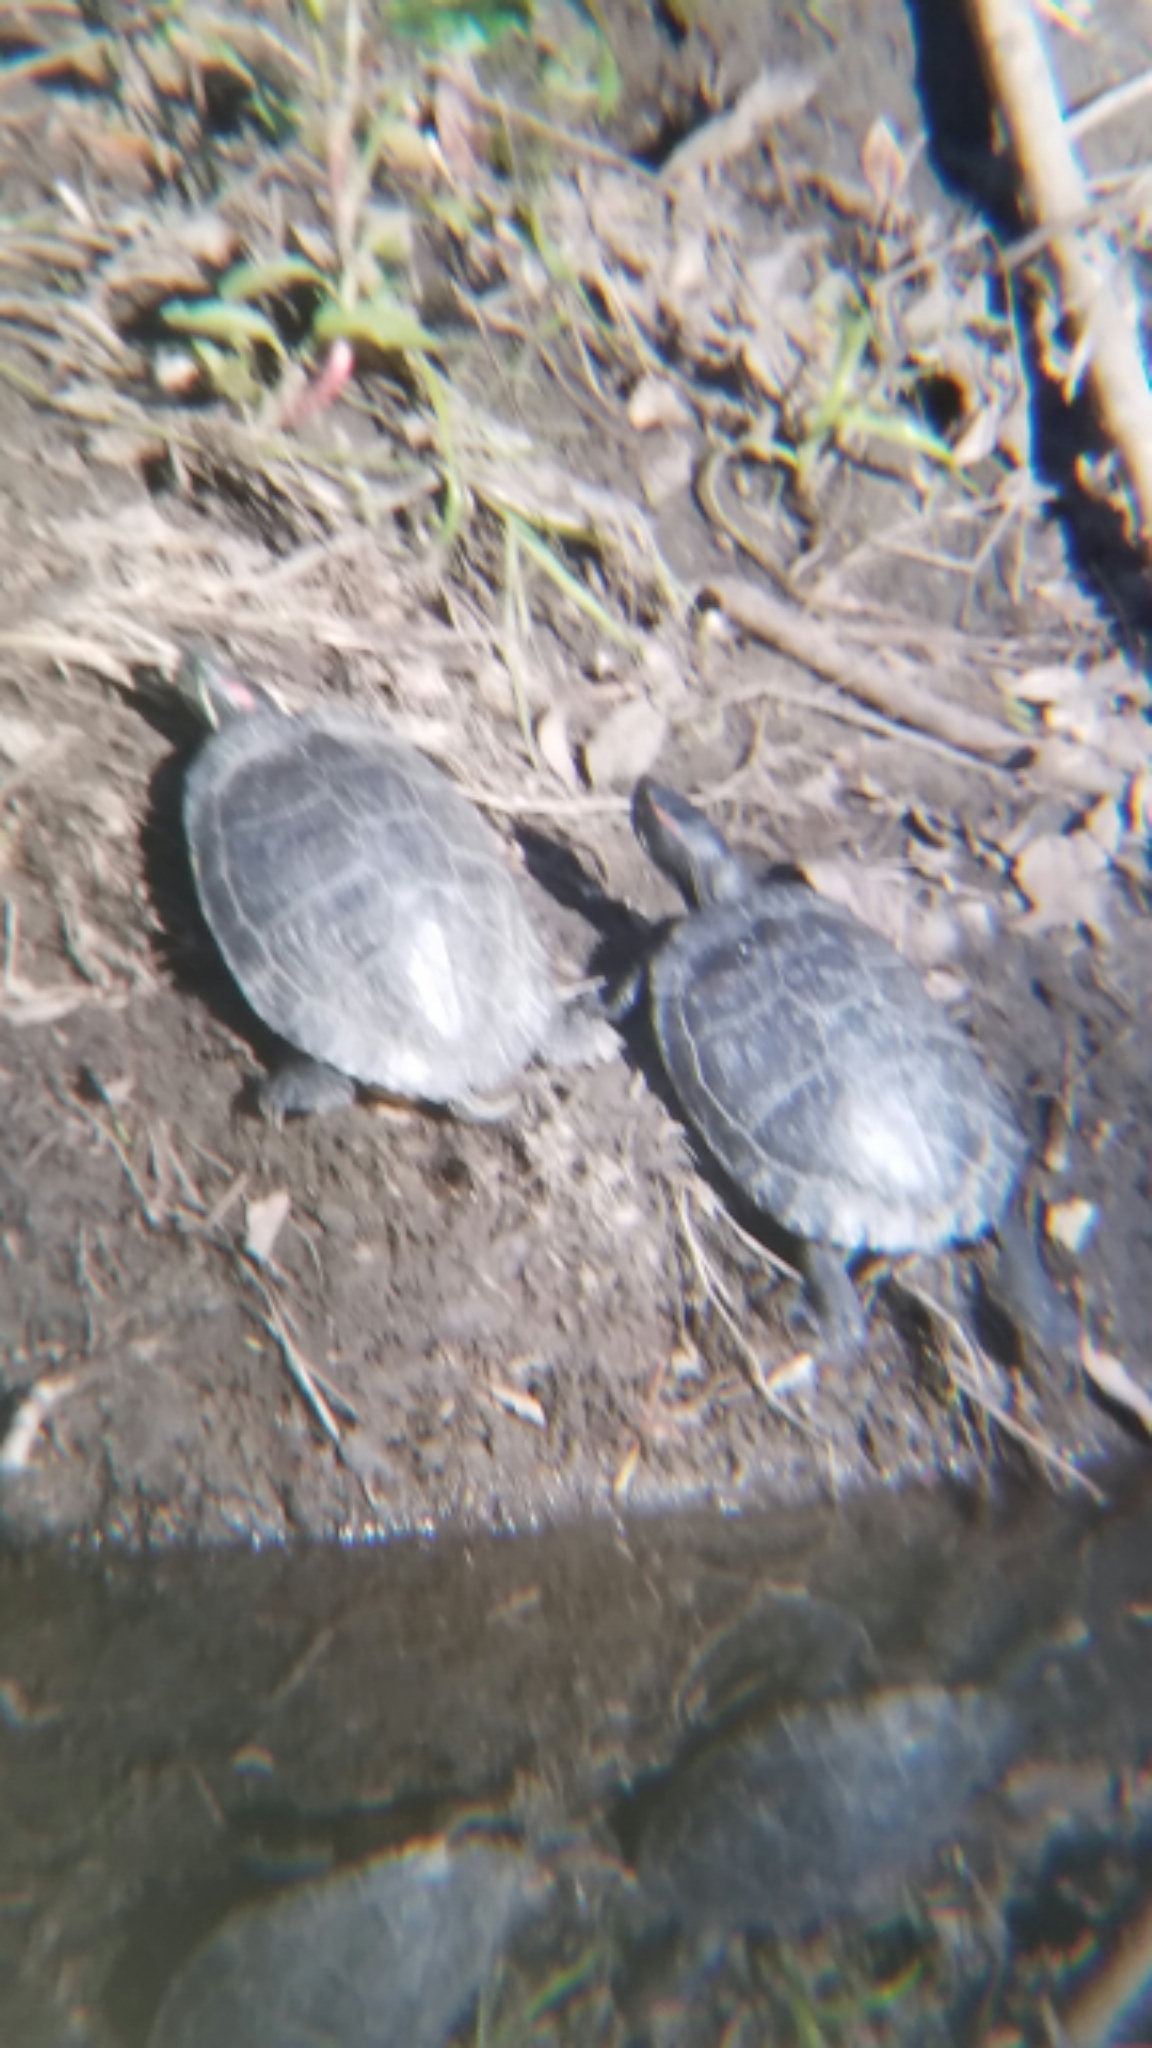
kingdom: Animalia
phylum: Chordata
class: Testudines
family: Emydidae
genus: Trachemys
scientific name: Trachemys scripta
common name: Slider
